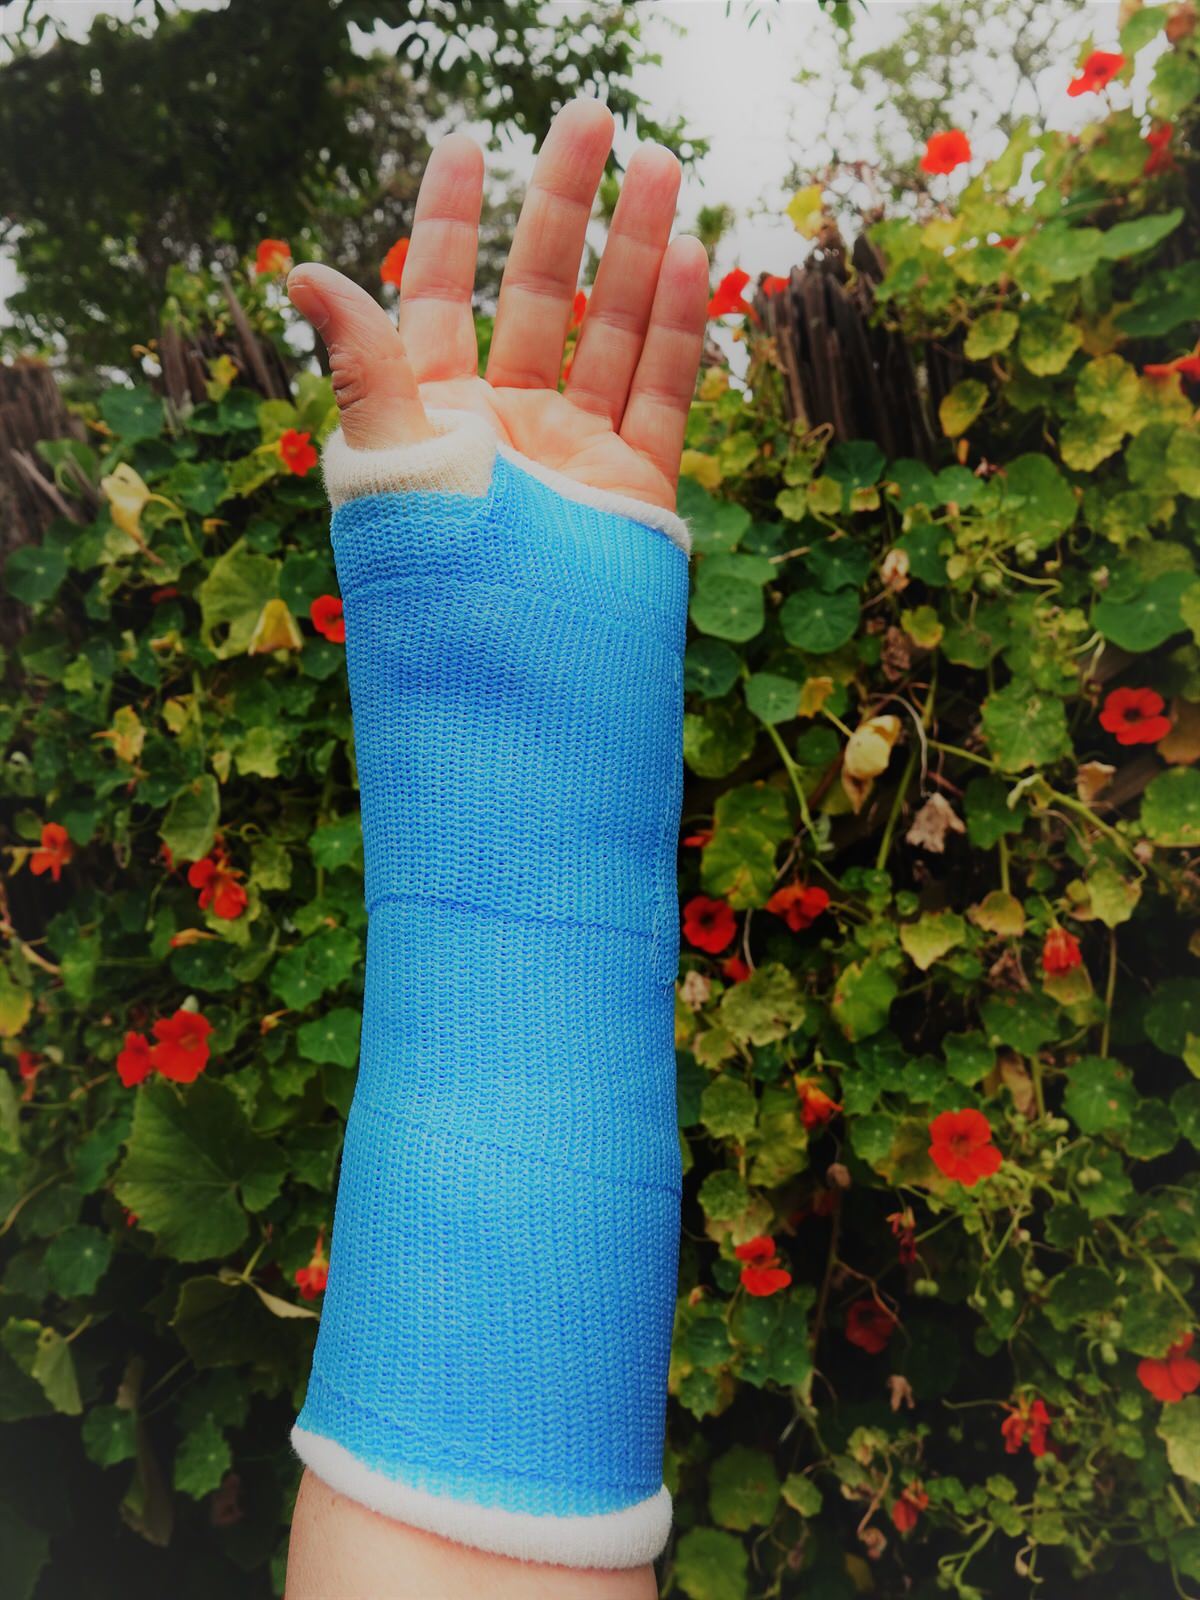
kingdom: Plantae
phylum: Tracheophyta
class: Magnoliopsida
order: Brassicales
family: Tropaeolaceae
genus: Tropaeolum
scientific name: Tropaeolum majus
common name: Nasturtium
